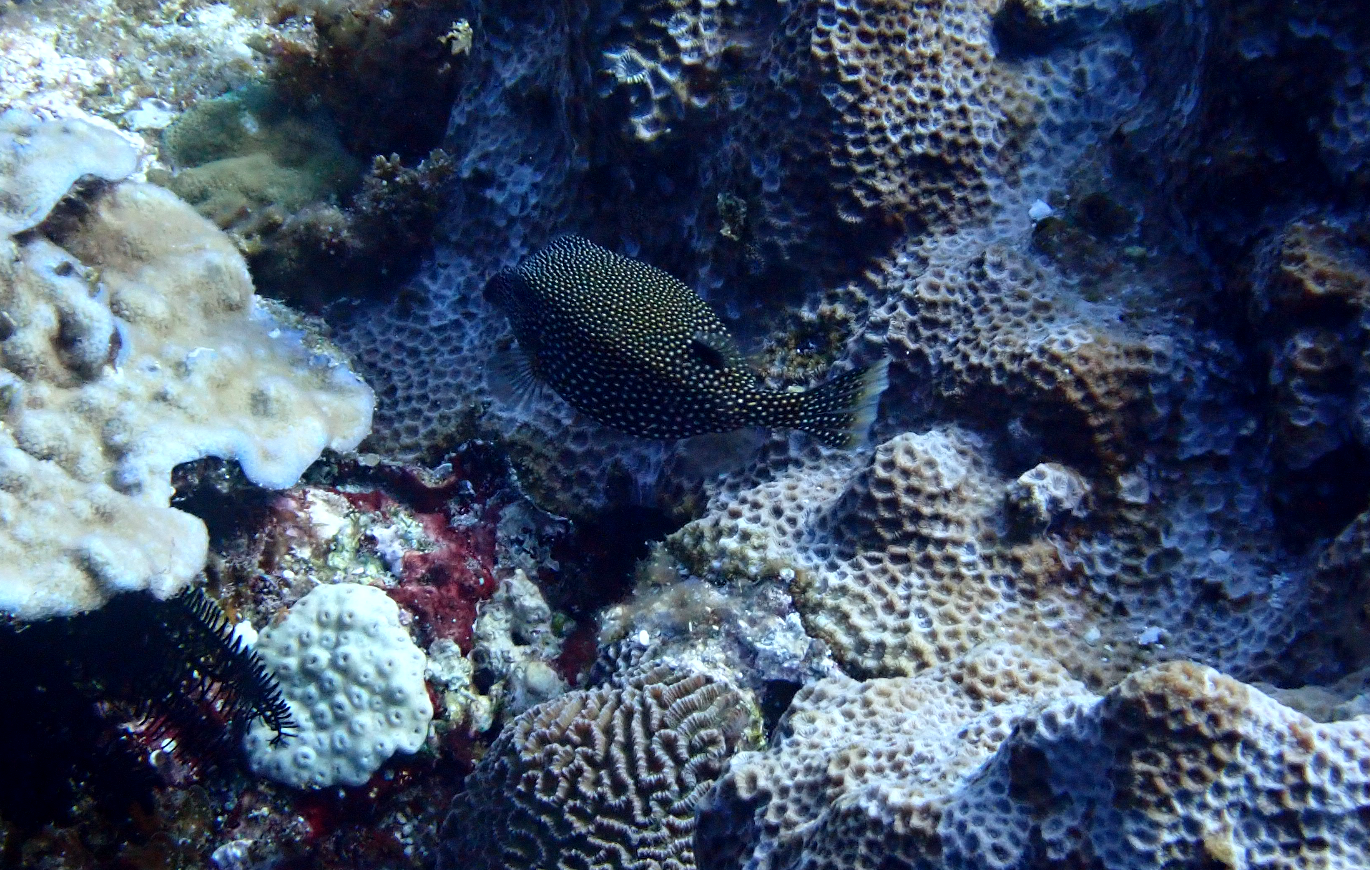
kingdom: Animalia
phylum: Chordata
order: Tetraodontiformes
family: Ostraciidae
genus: Ostracion
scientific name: Ostracion meleagris
